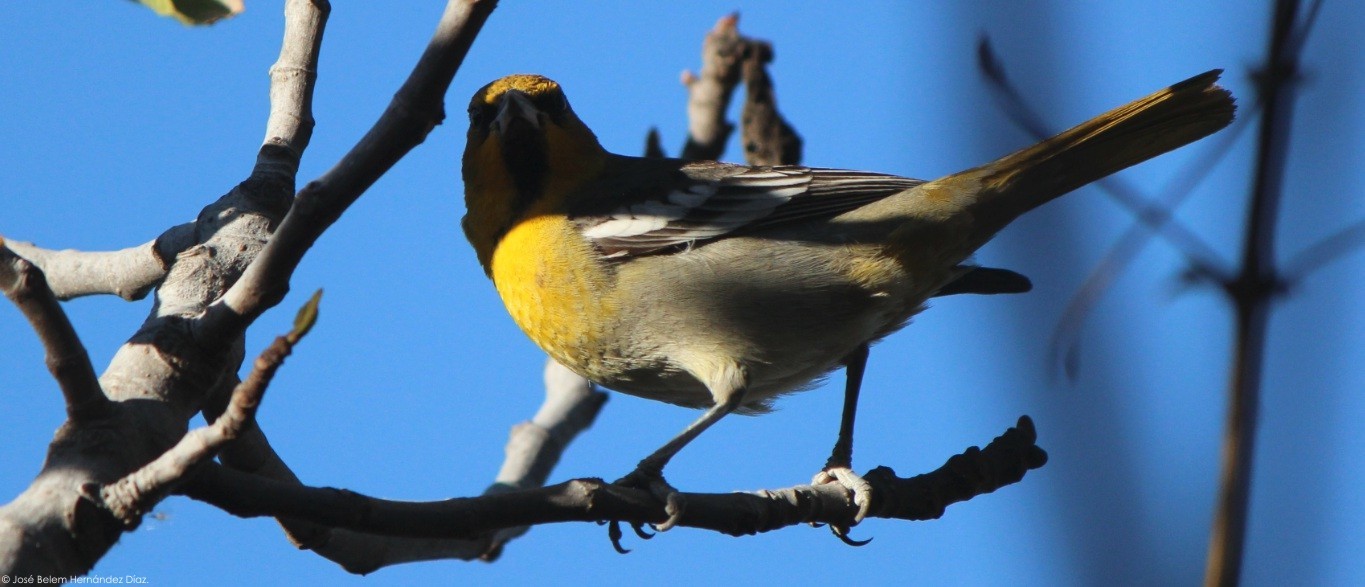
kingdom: Animalia
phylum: Chordata
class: Aves
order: Passeriformes
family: Icteridae
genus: Icterus
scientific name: Icterus abeillei
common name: Black-backed oriole
